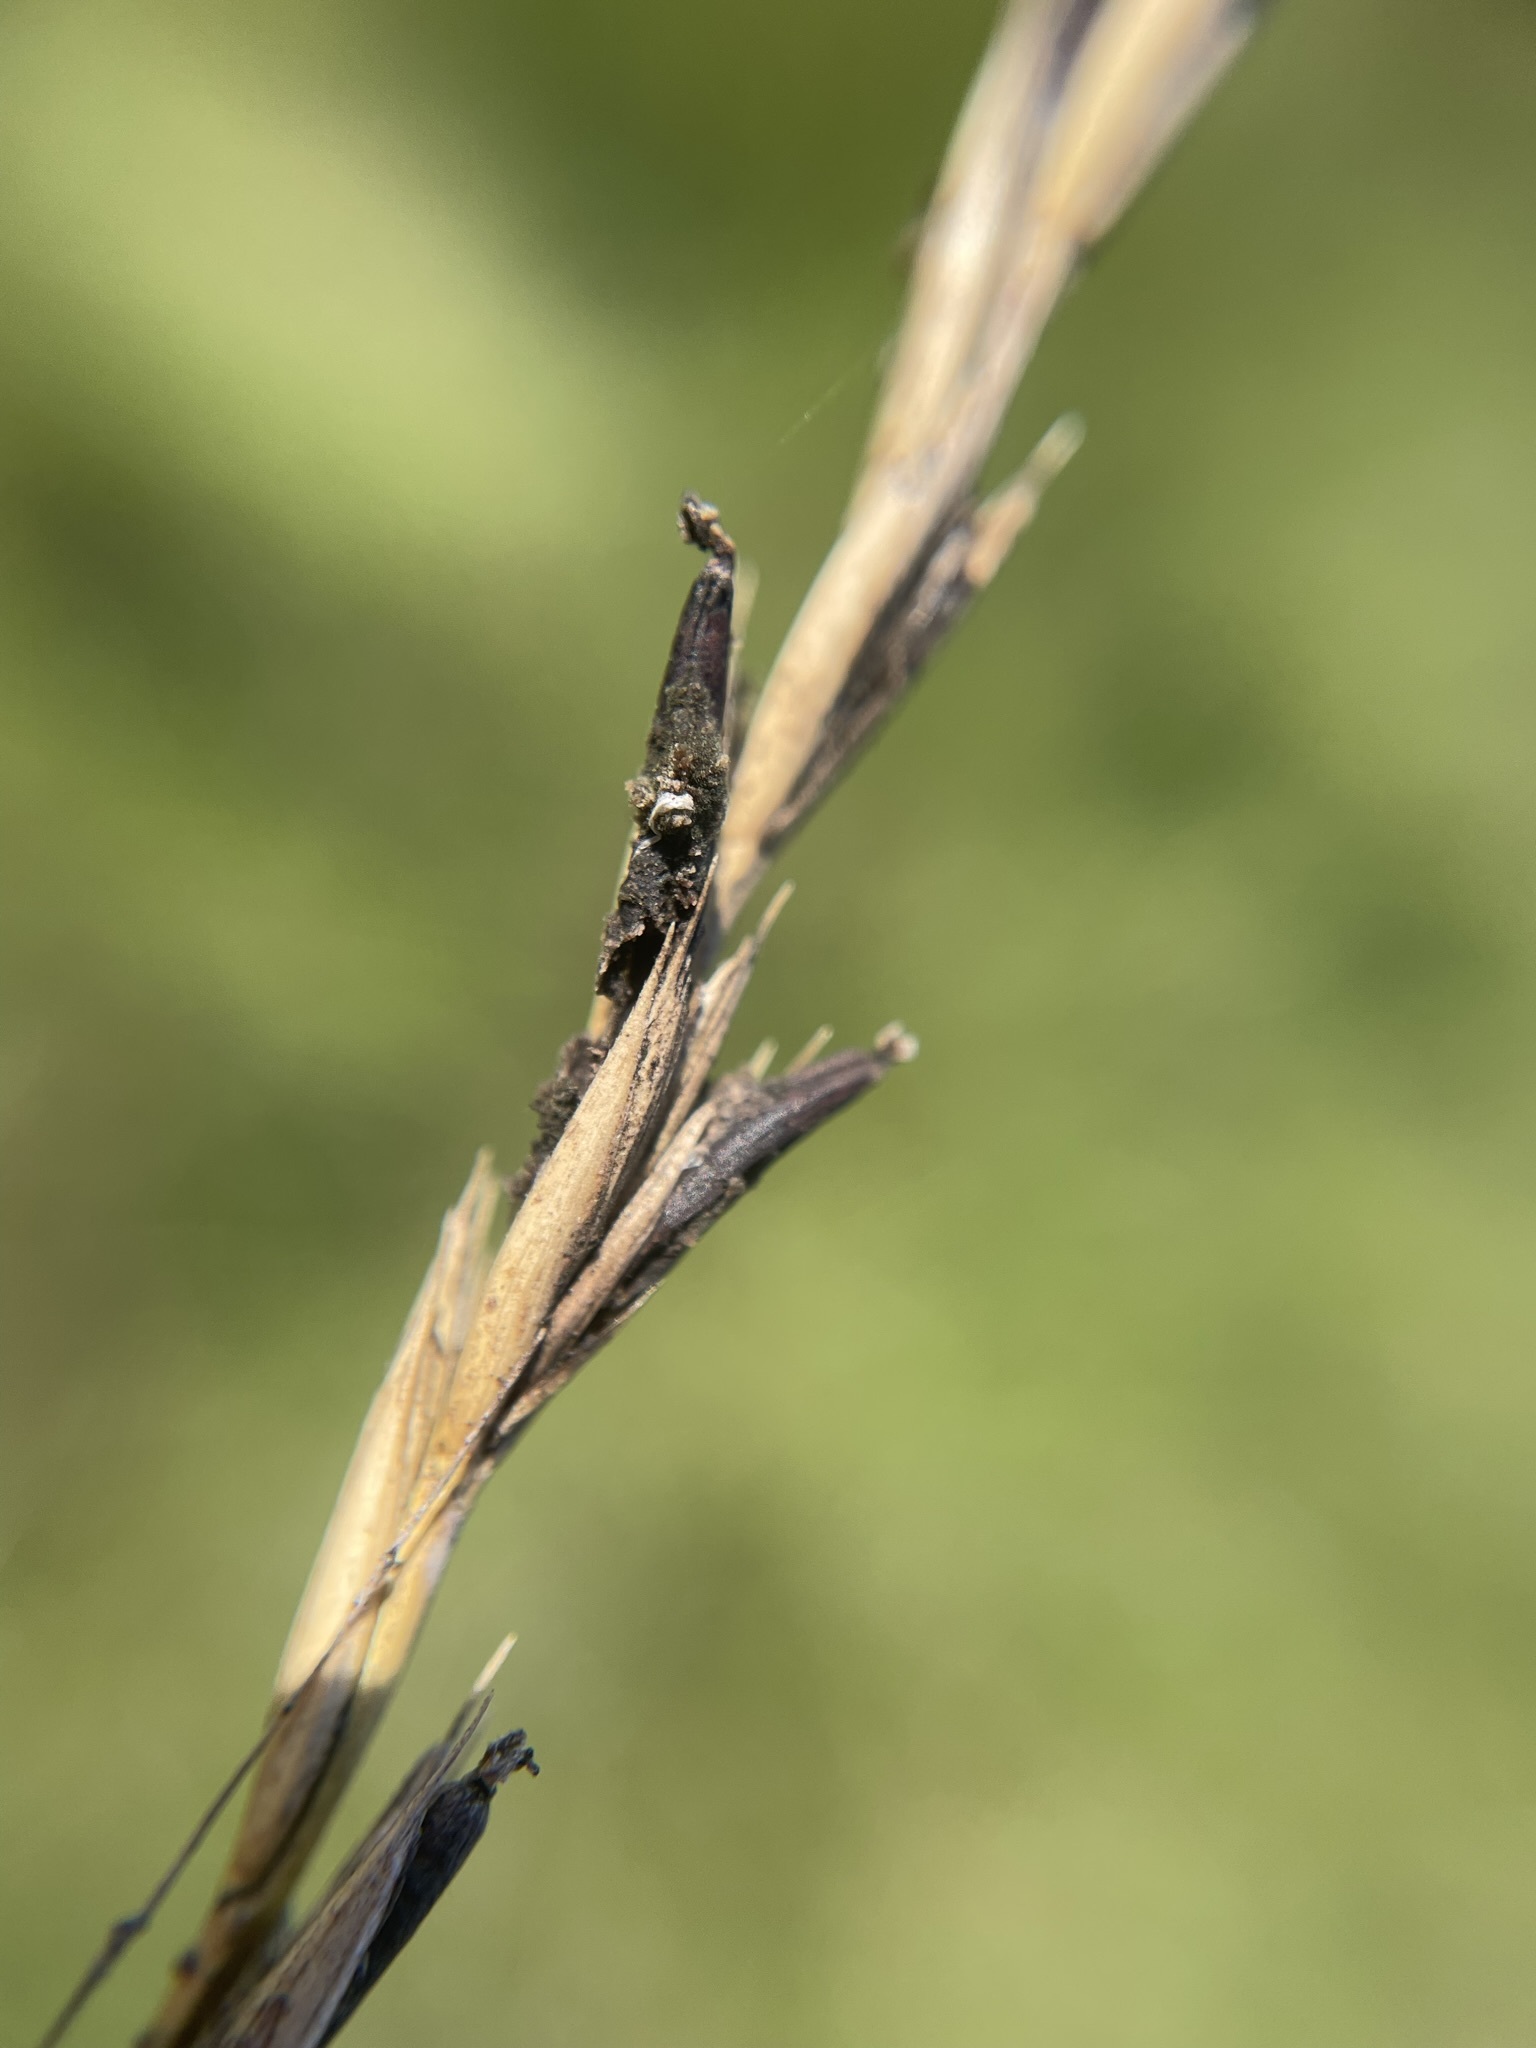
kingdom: Fungi
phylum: Ascomycota
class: Sordariomycetes
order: Hypocreales
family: Clavicipitaceae
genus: Claviceps
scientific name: Claviceps purpurea
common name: Rye ergot
